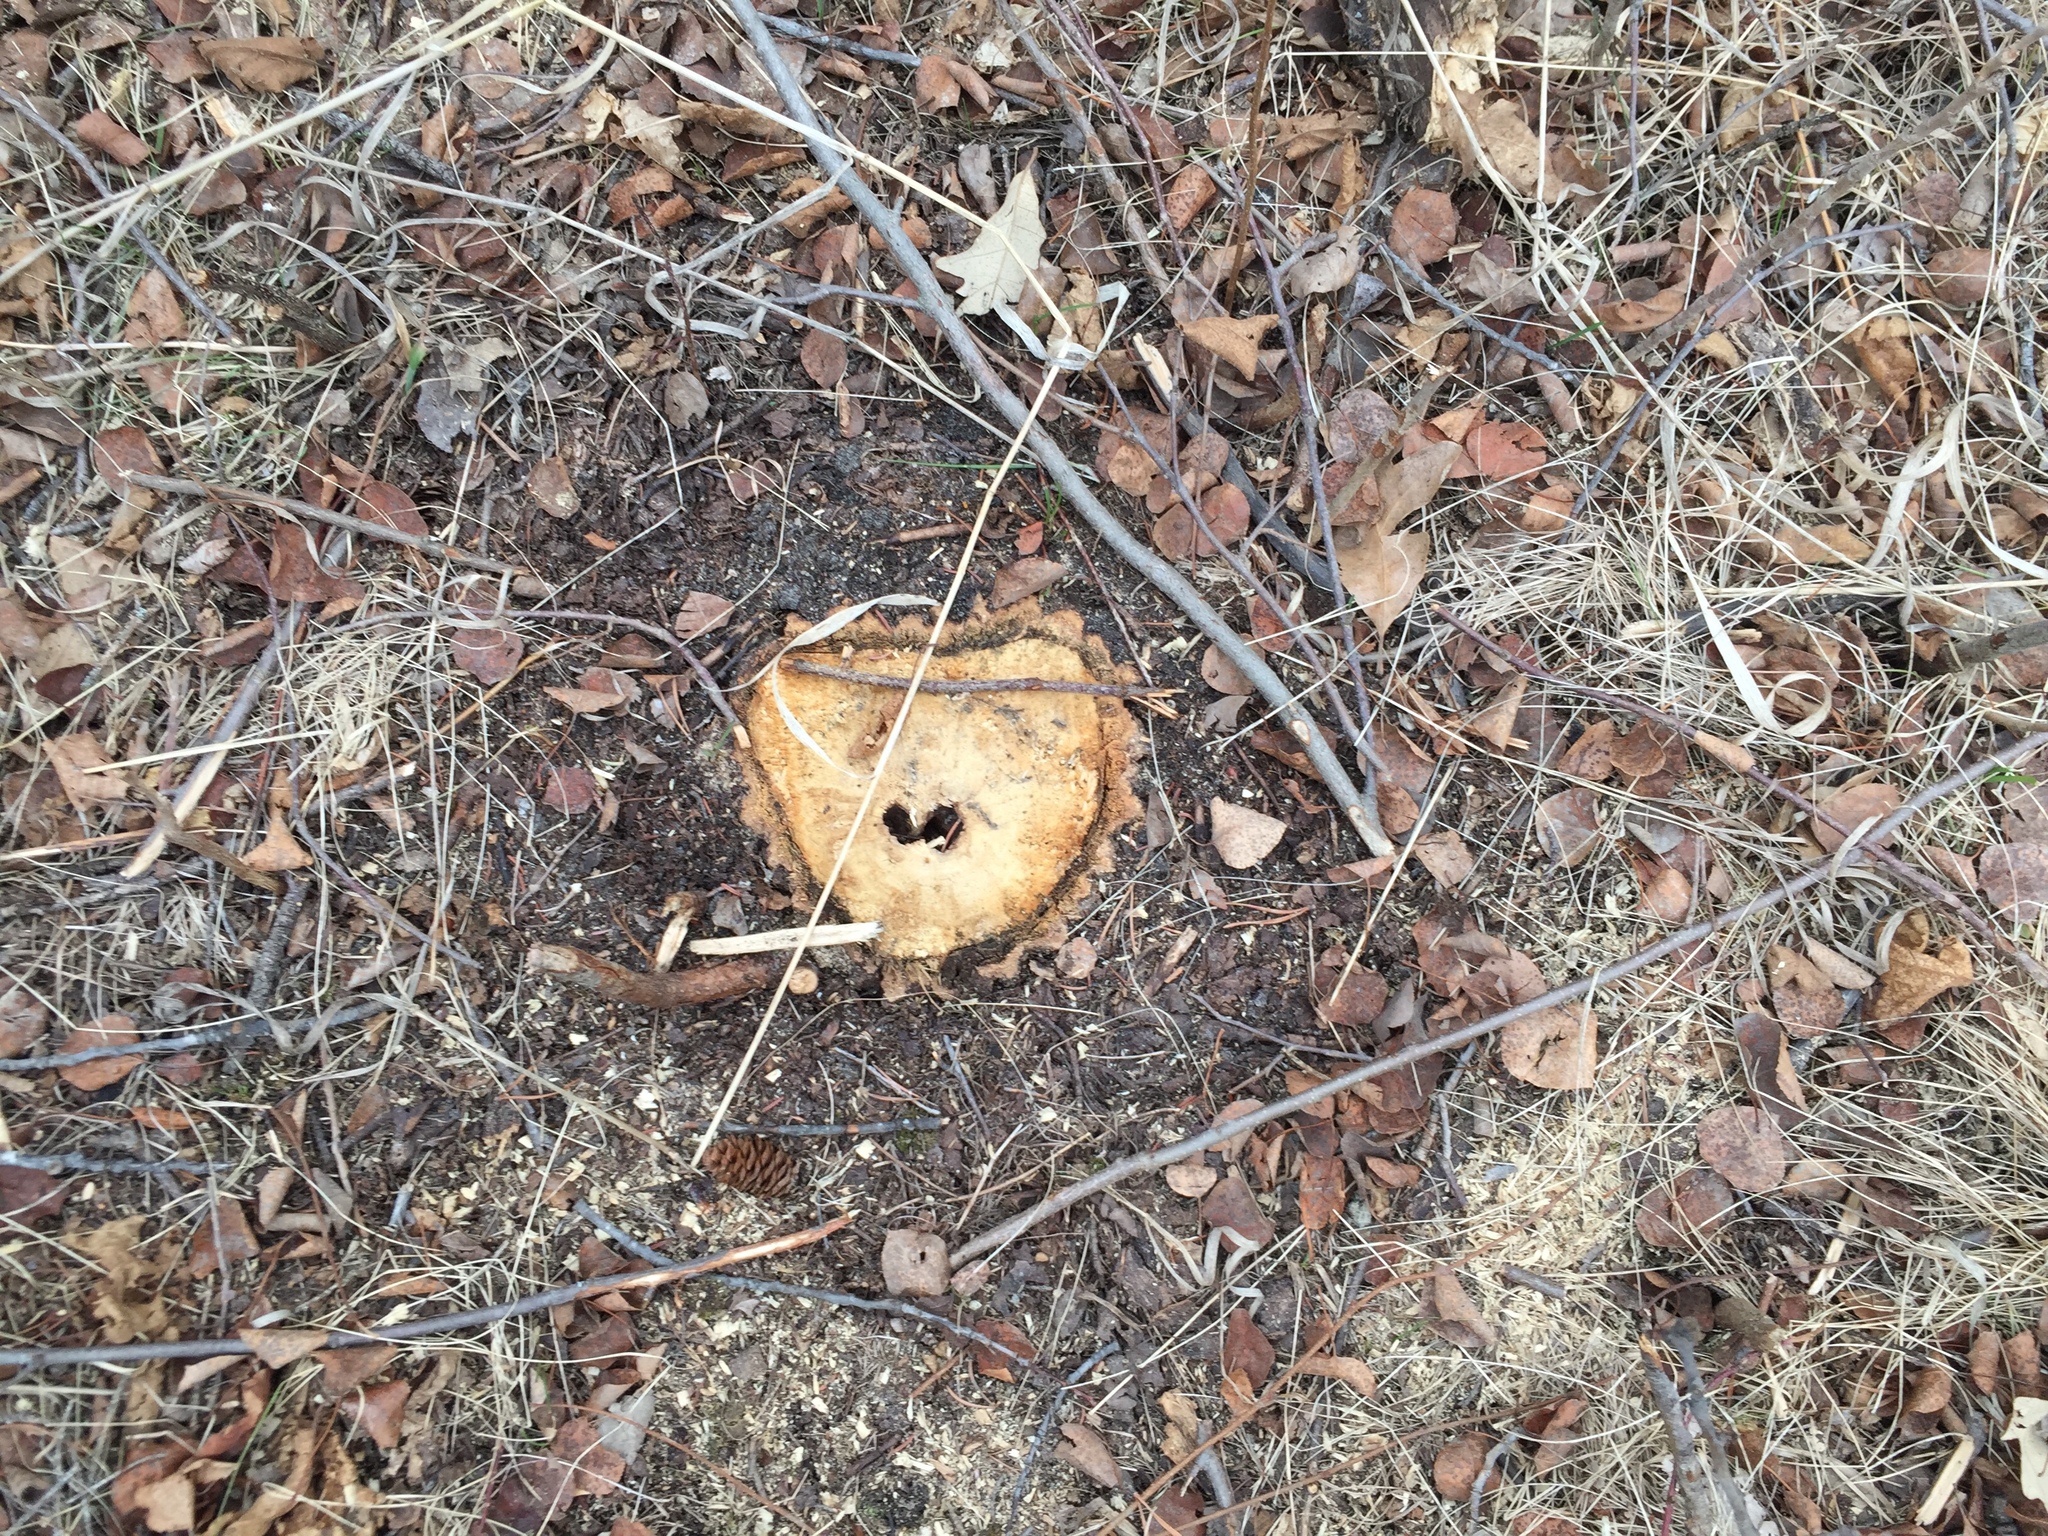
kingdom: Plantae
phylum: Tracheophyta
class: Magnoliopsida
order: Fagales
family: Fagaceae
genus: Quercus
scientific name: Quercus macrocarpa
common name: Bur oak
